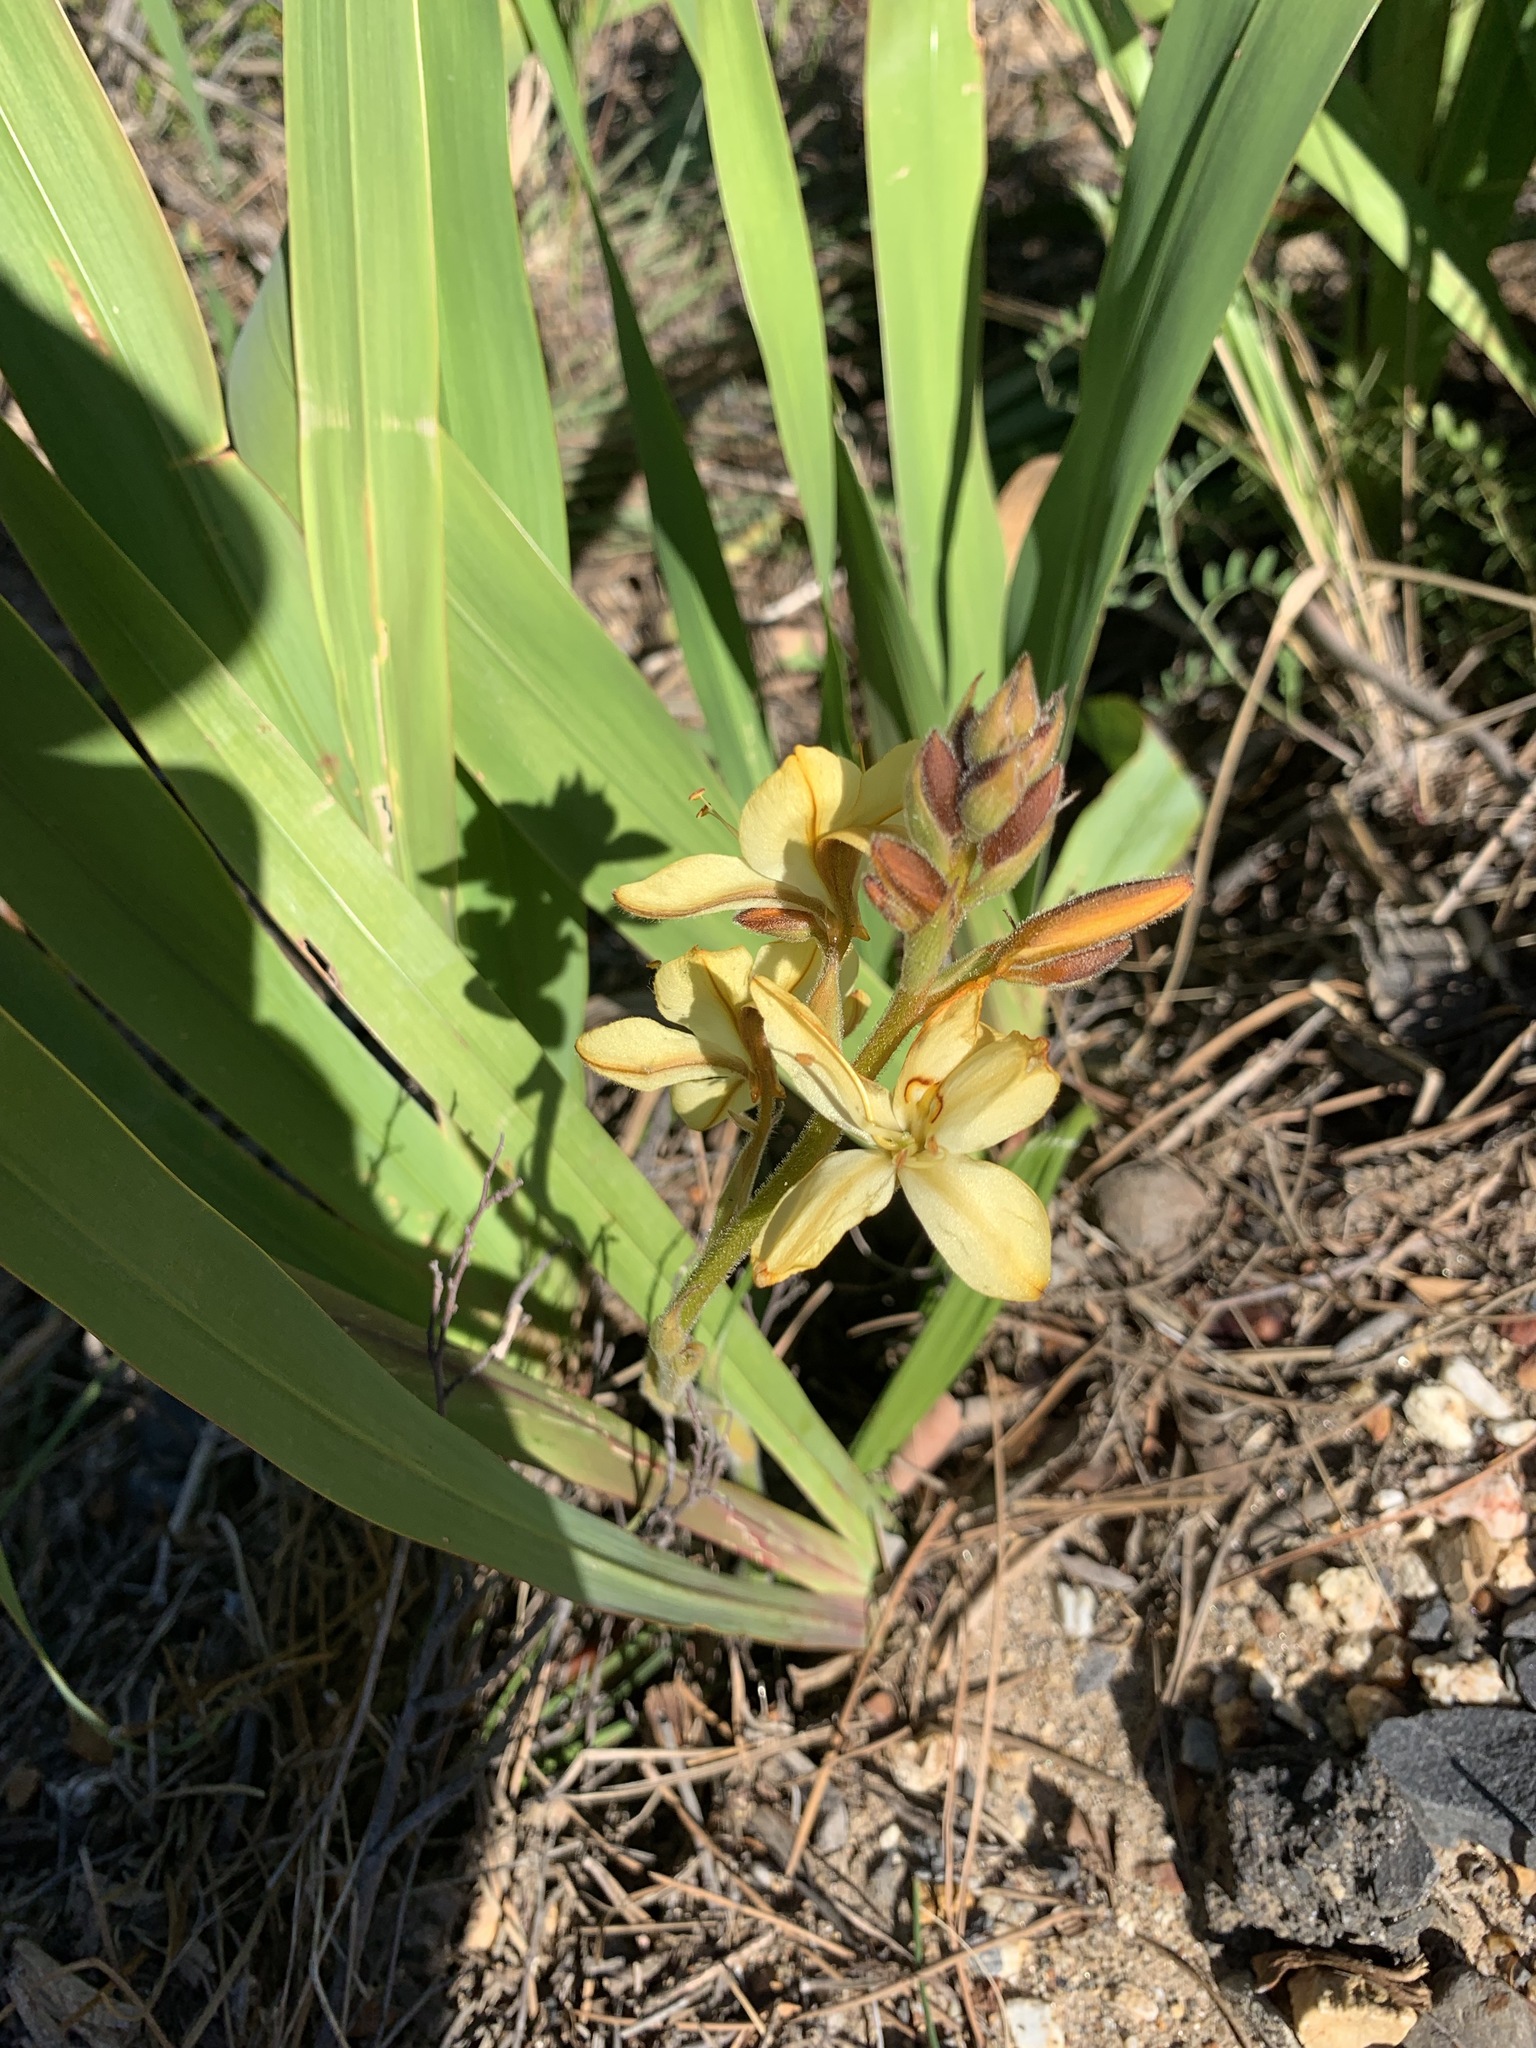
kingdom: Plantae
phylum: Tracheophyta
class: Liliopsida
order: Commelinales
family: Haemodoraceae
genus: Wachendorfia
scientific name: Wachendorfia paniculata
